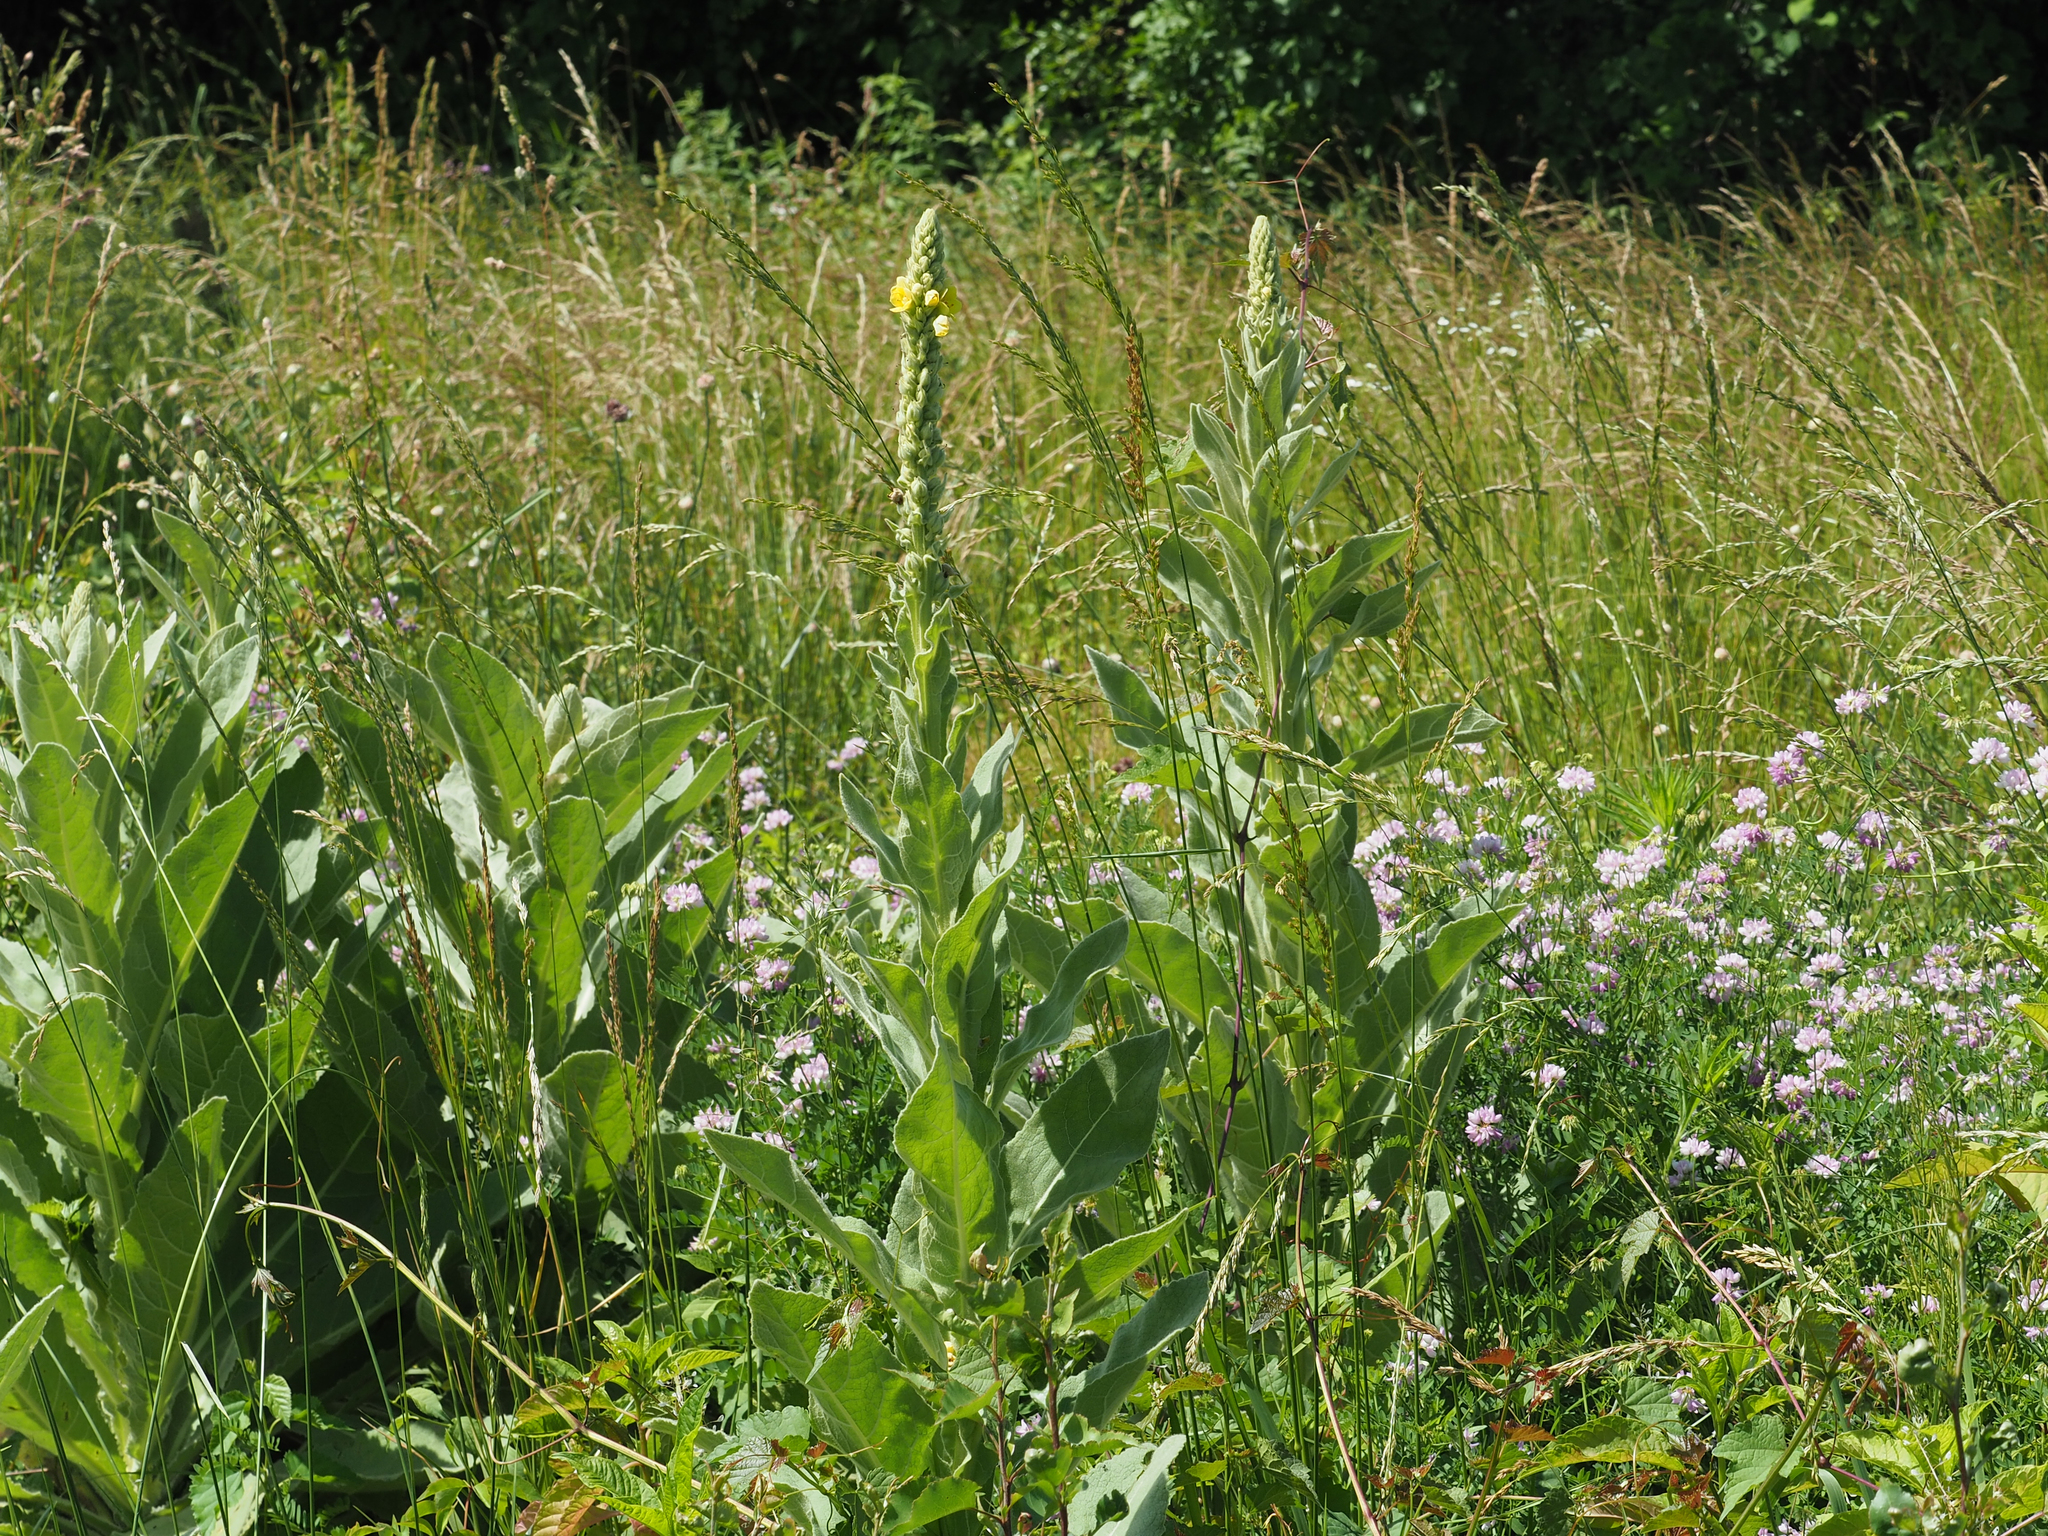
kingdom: Plantae
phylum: Tracheophyta
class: Magnoliopsida
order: Lamiales
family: Scrophulariaceae
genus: Verbascum
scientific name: Verbascum thapsus
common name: Common mullein
